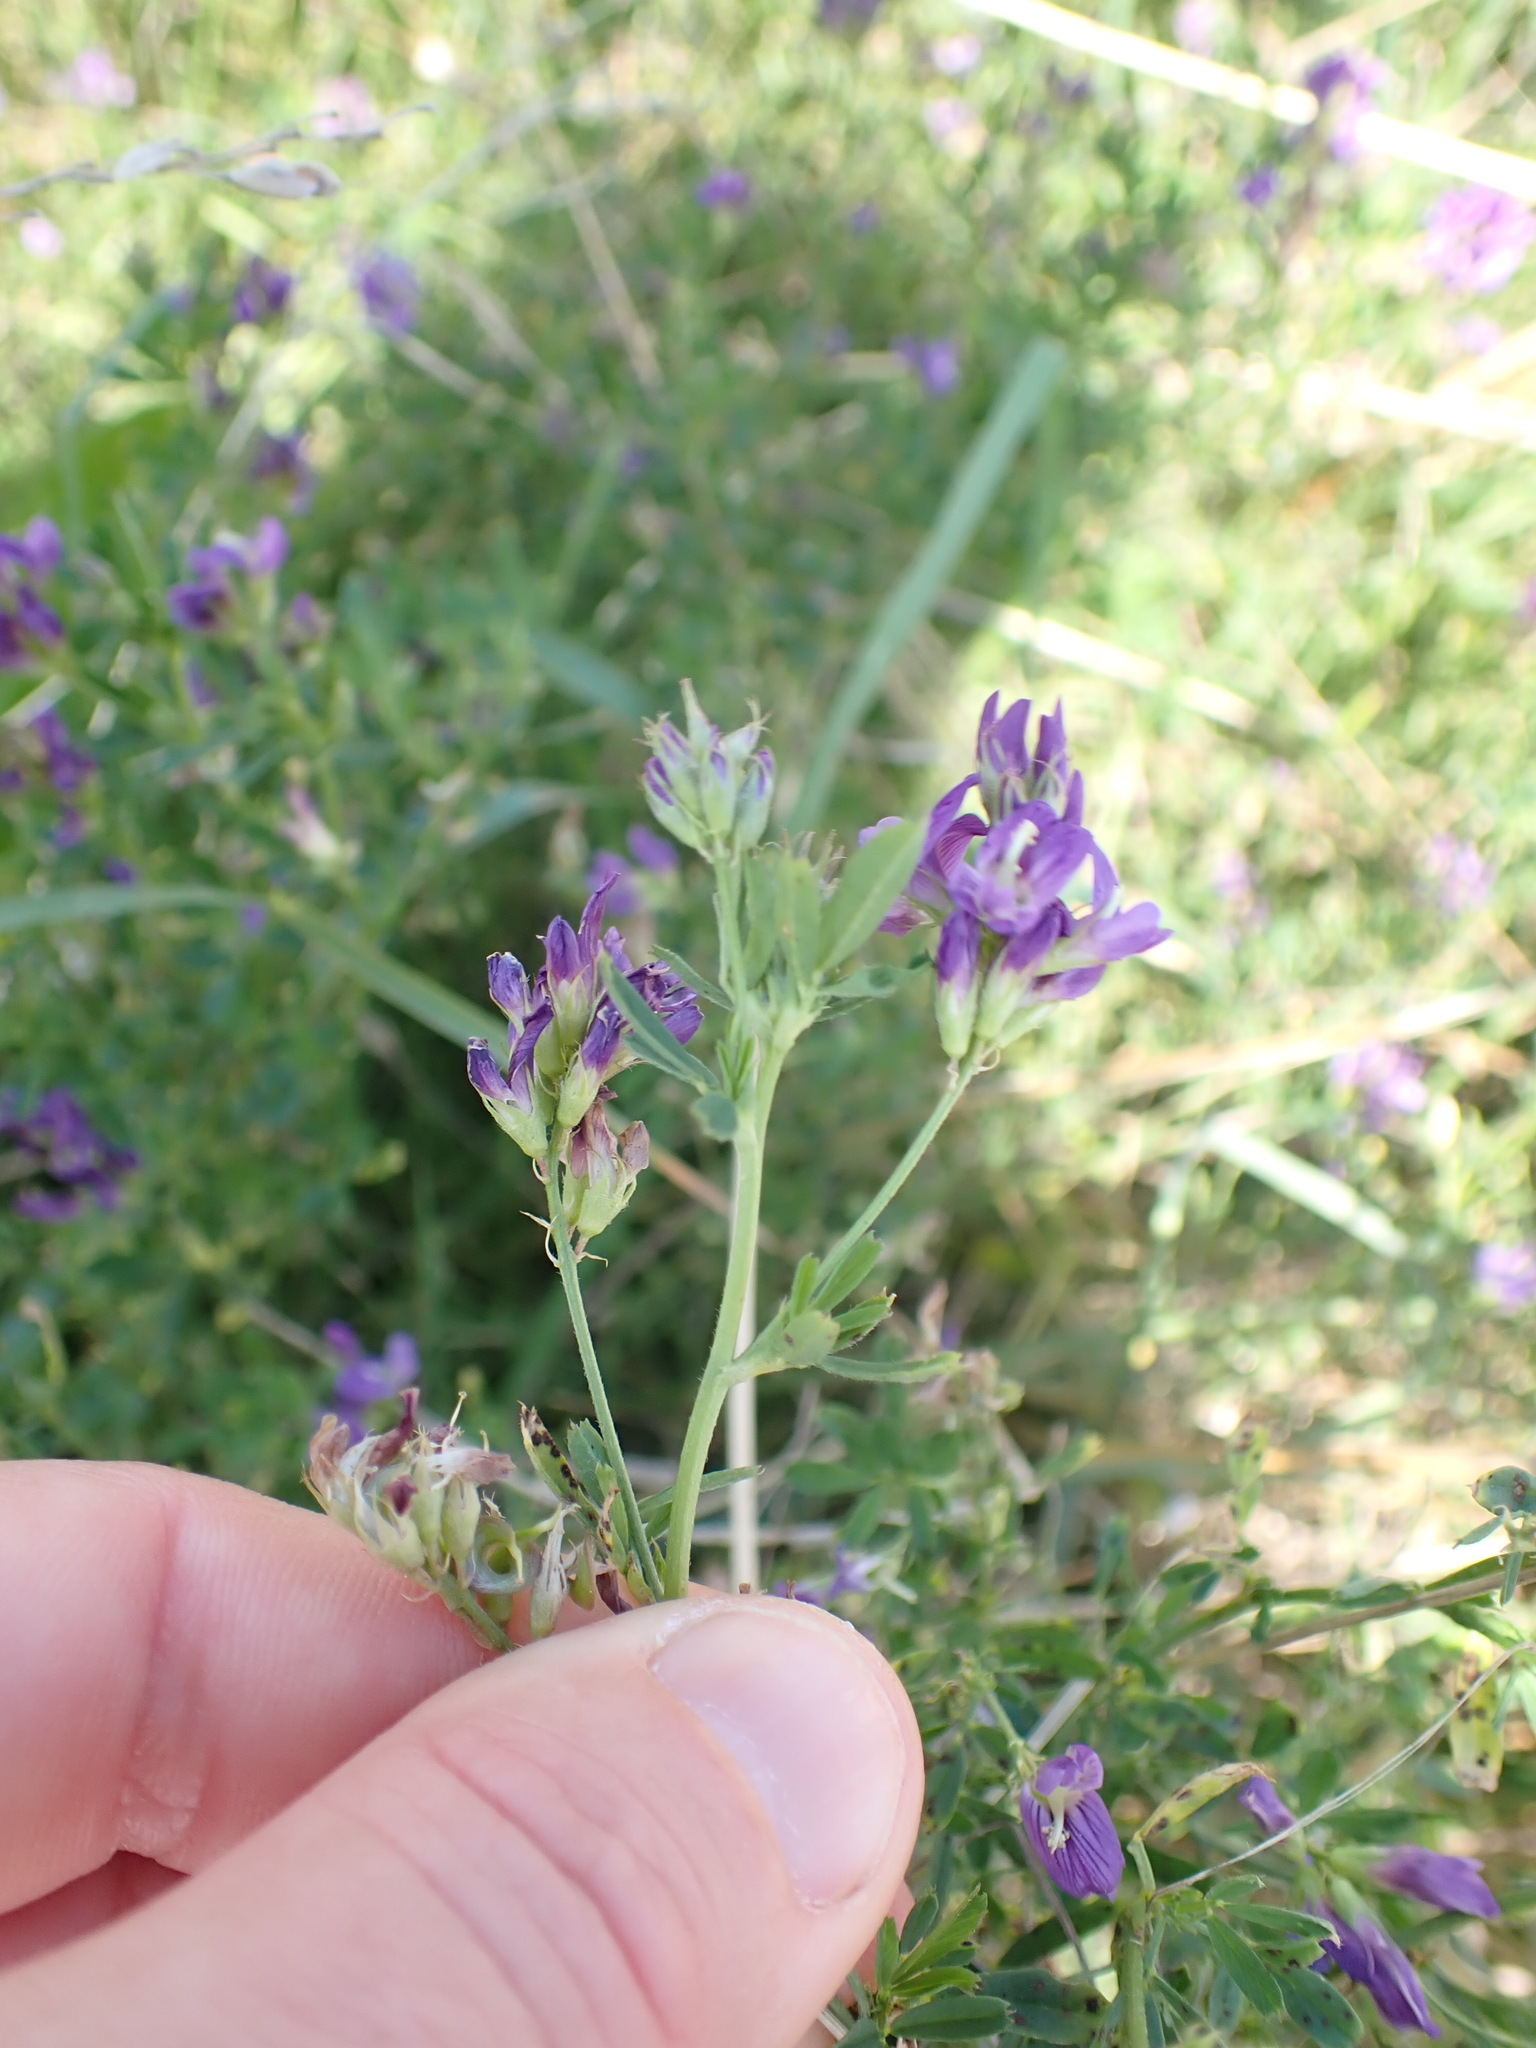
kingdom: Plantae
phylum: Tracheophyta
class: Magnoliopsida
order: Fabales
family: Fabaceae
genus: Medicago
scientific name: Medicago sativa
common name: Alfalfa
